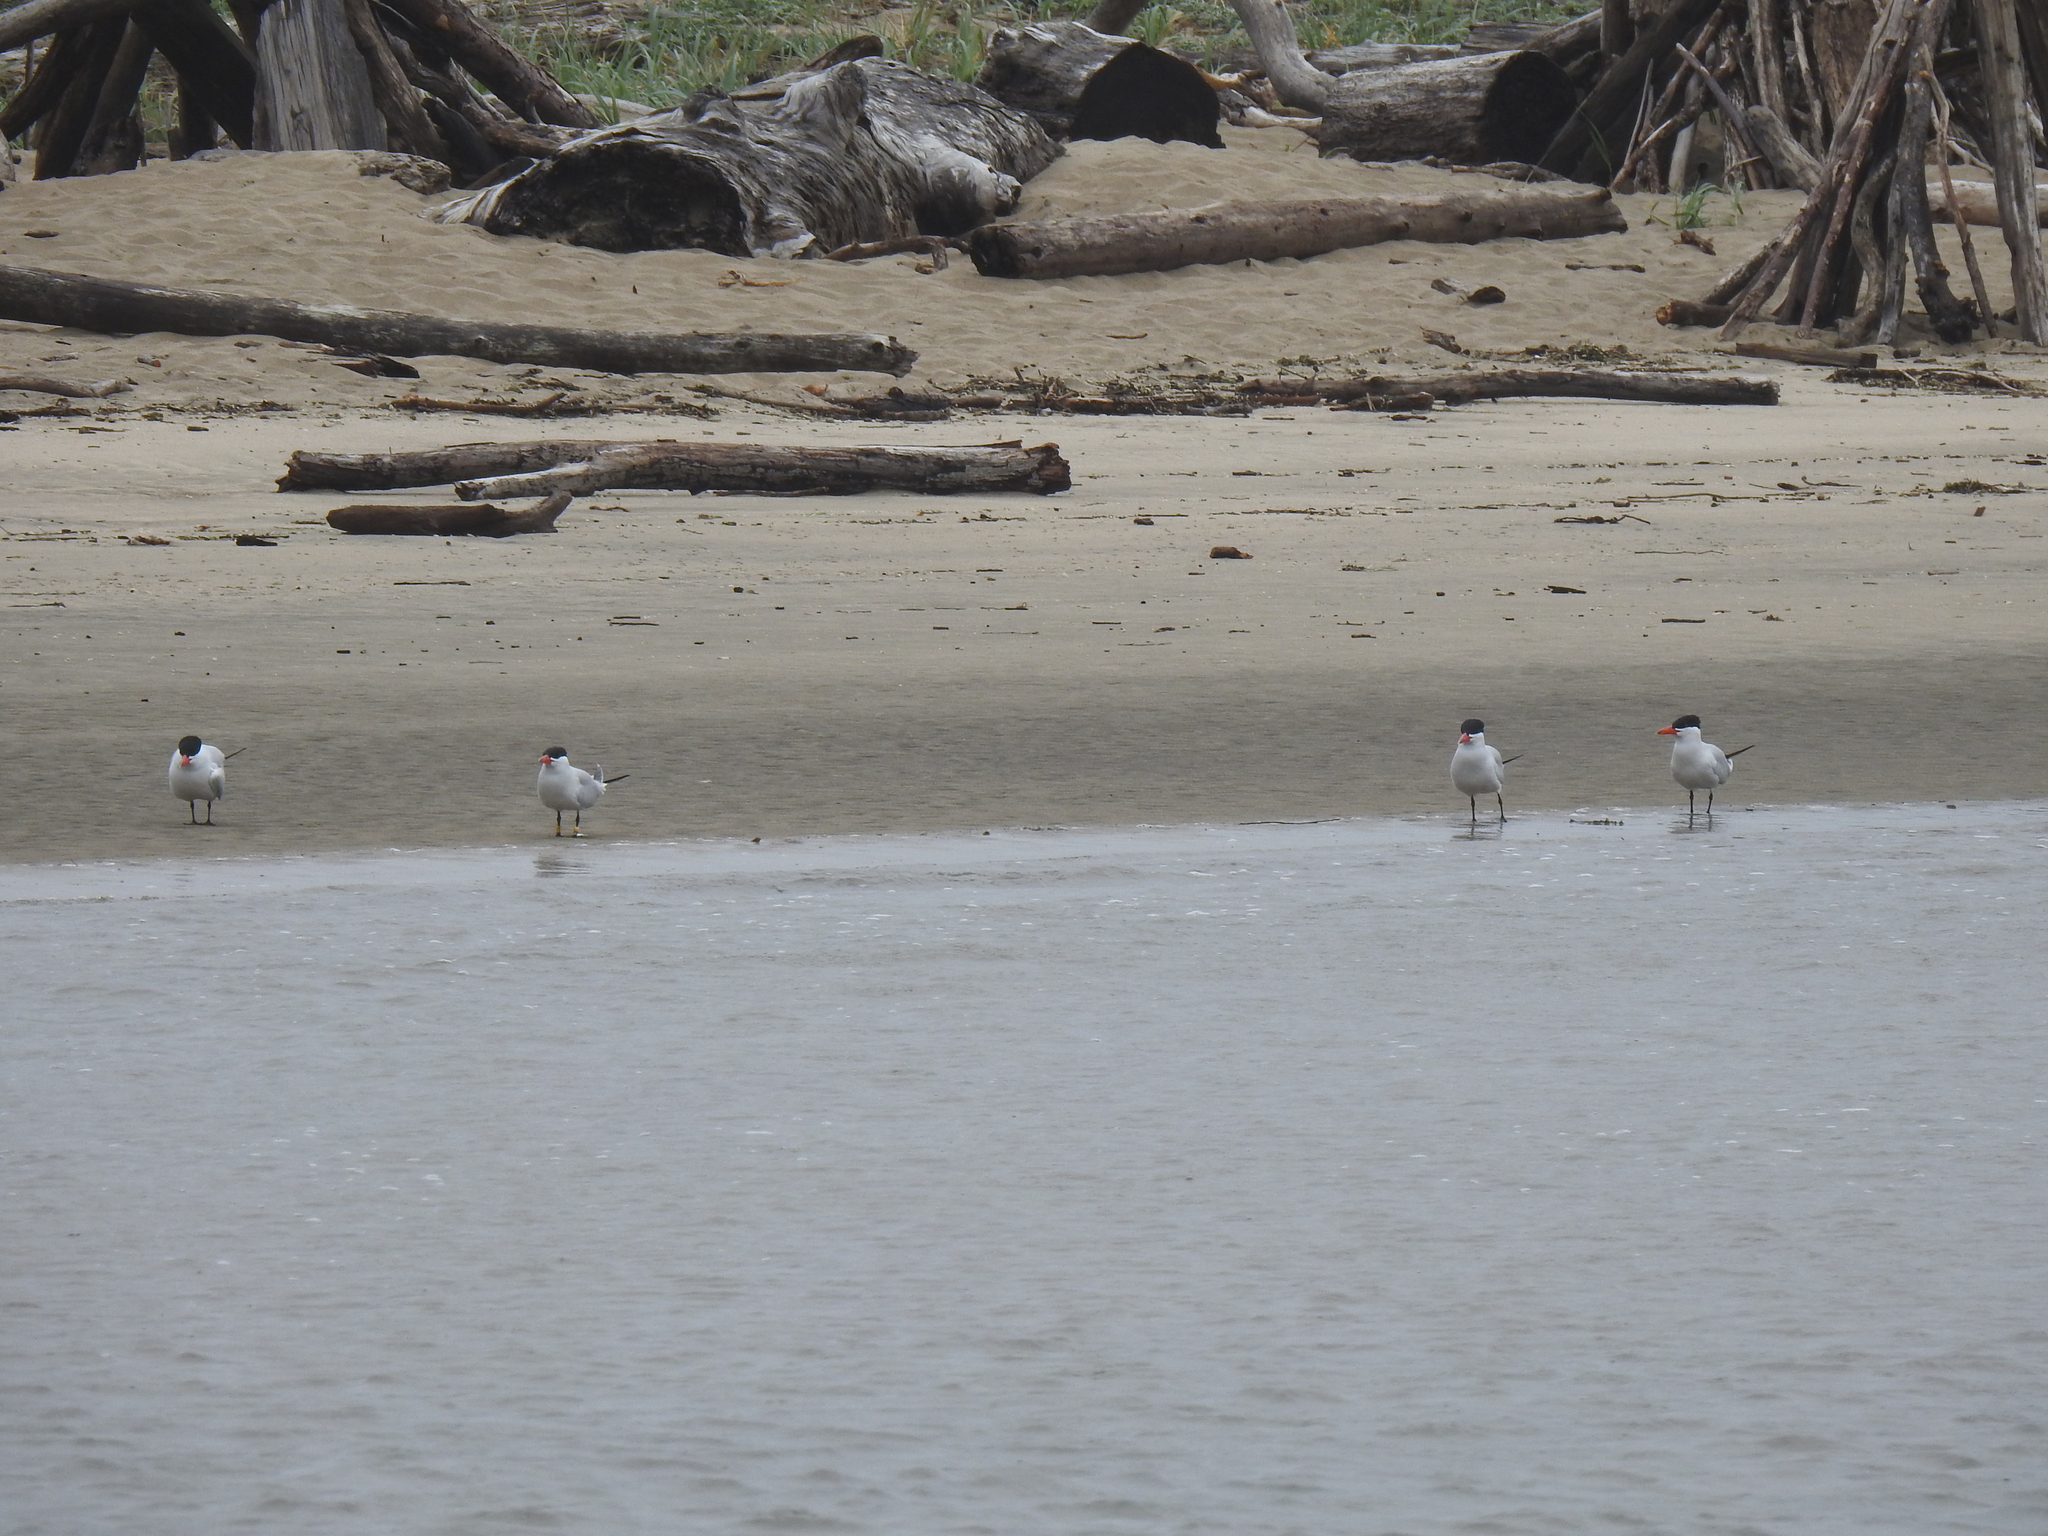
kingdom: Animalia
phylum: Chordata
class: Aves
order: Charadriiformes
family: Laridae
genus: Hydroprogne
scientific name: Hydroprogne caspia
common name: Caspian tern
